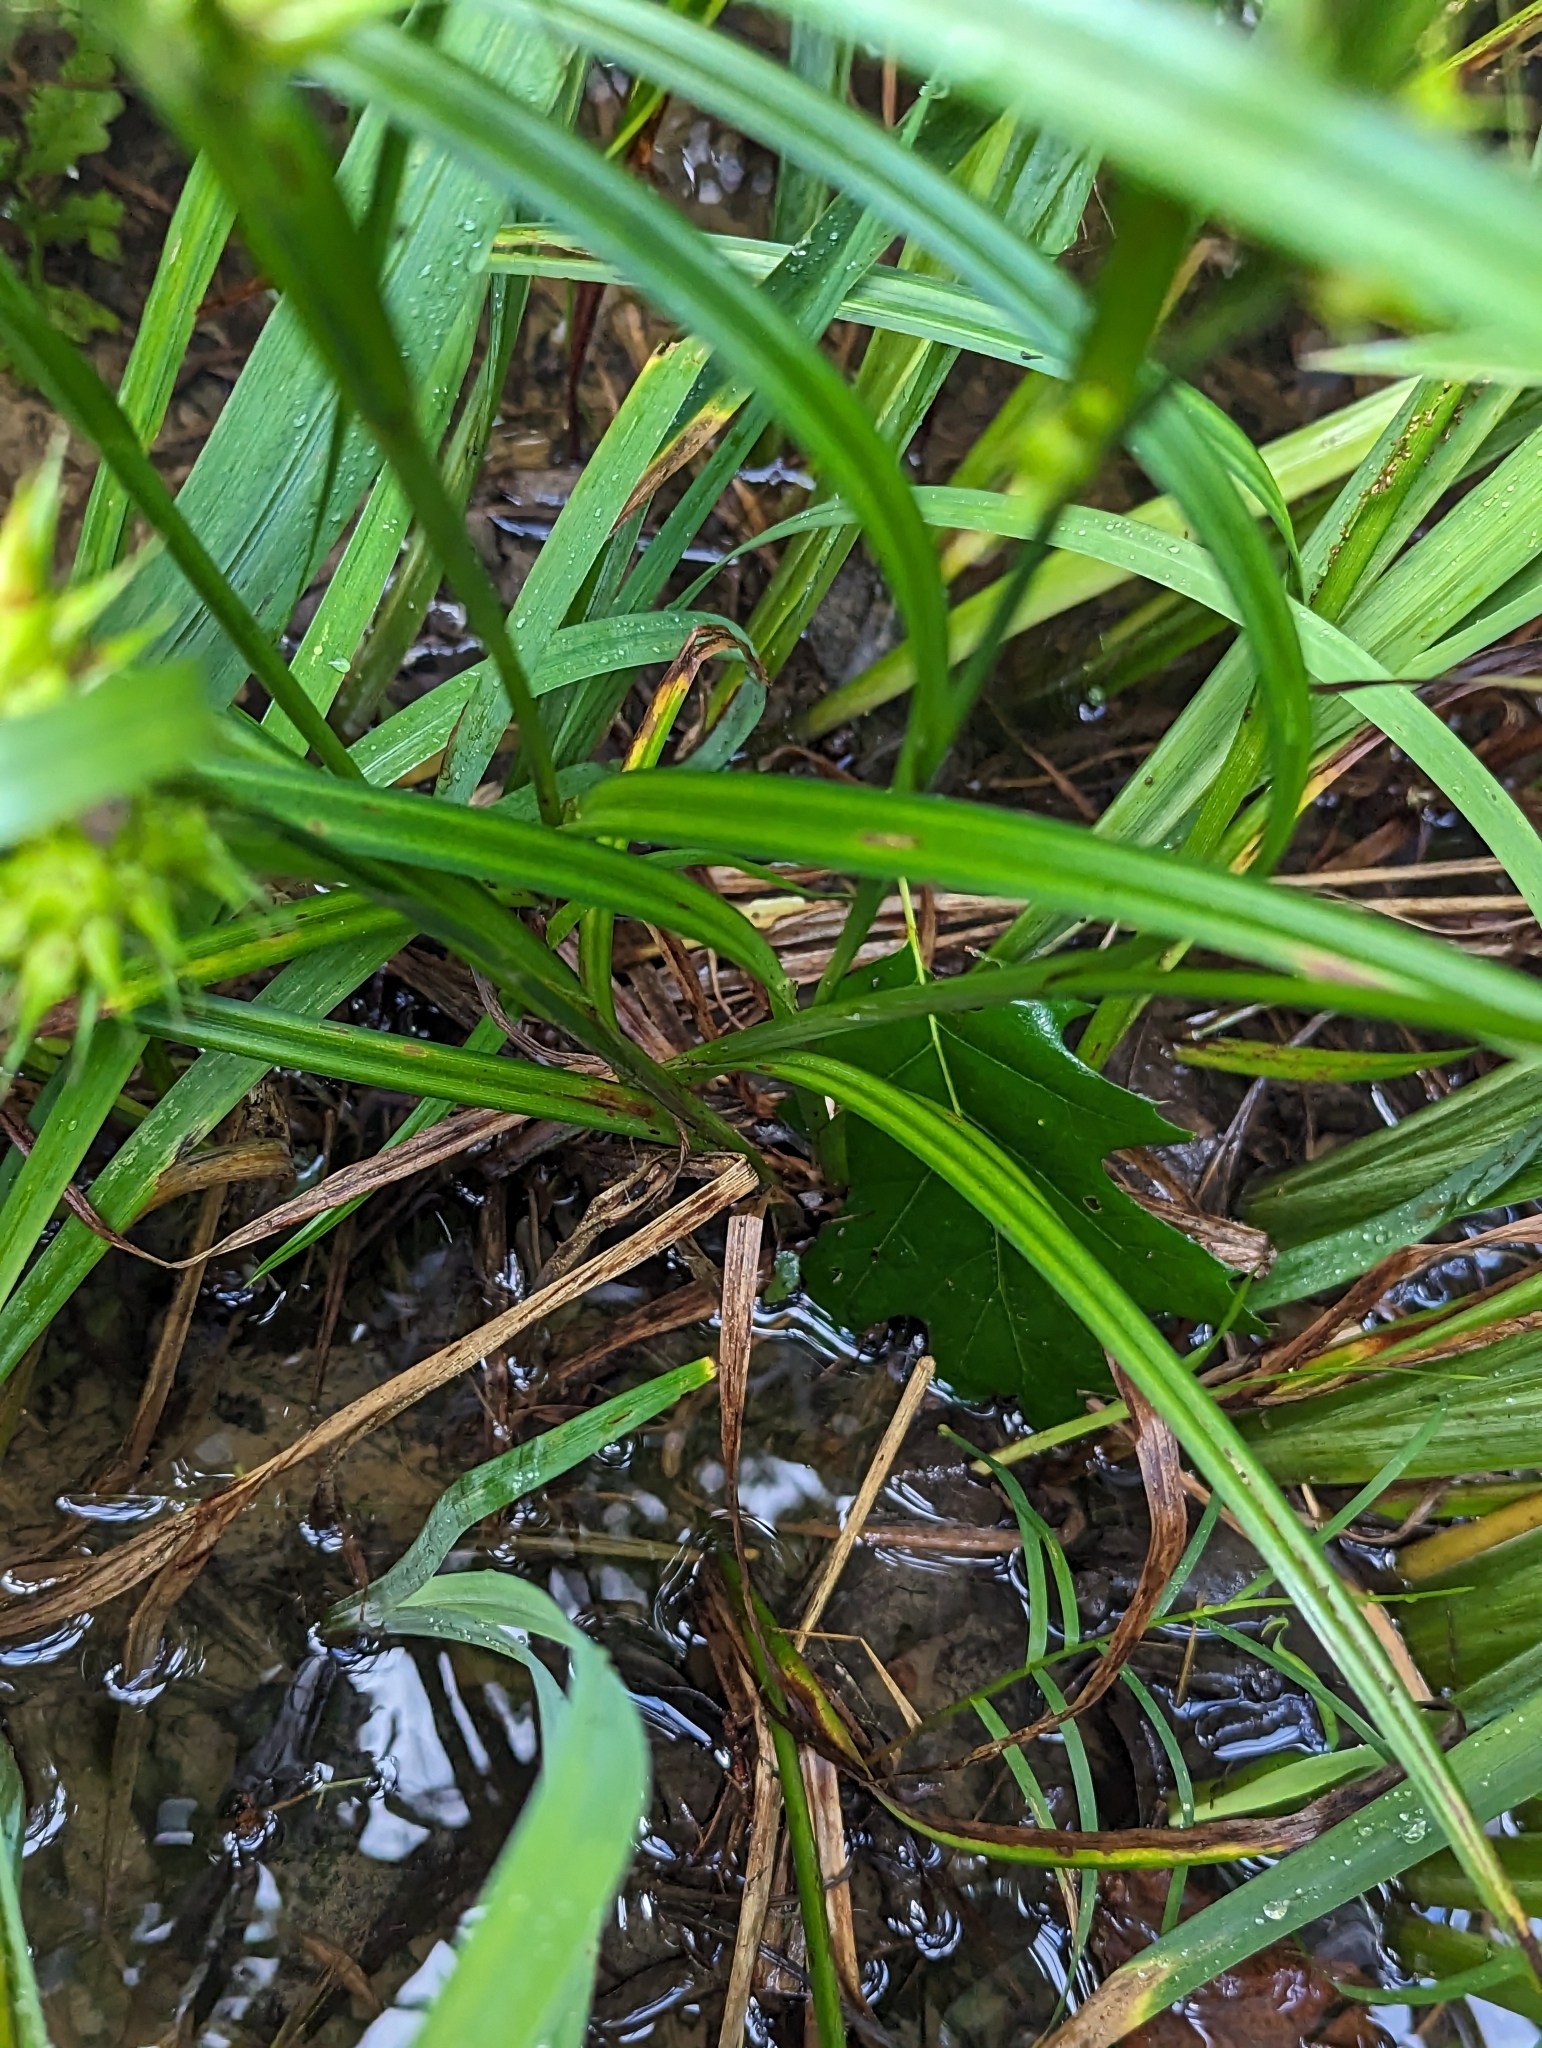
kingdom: Plantae
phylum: Tracheophyta
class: Liliopsida
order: Poales
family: Cyperaceae
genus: Carex
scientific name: Carex lupulina
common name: Hop sedge
